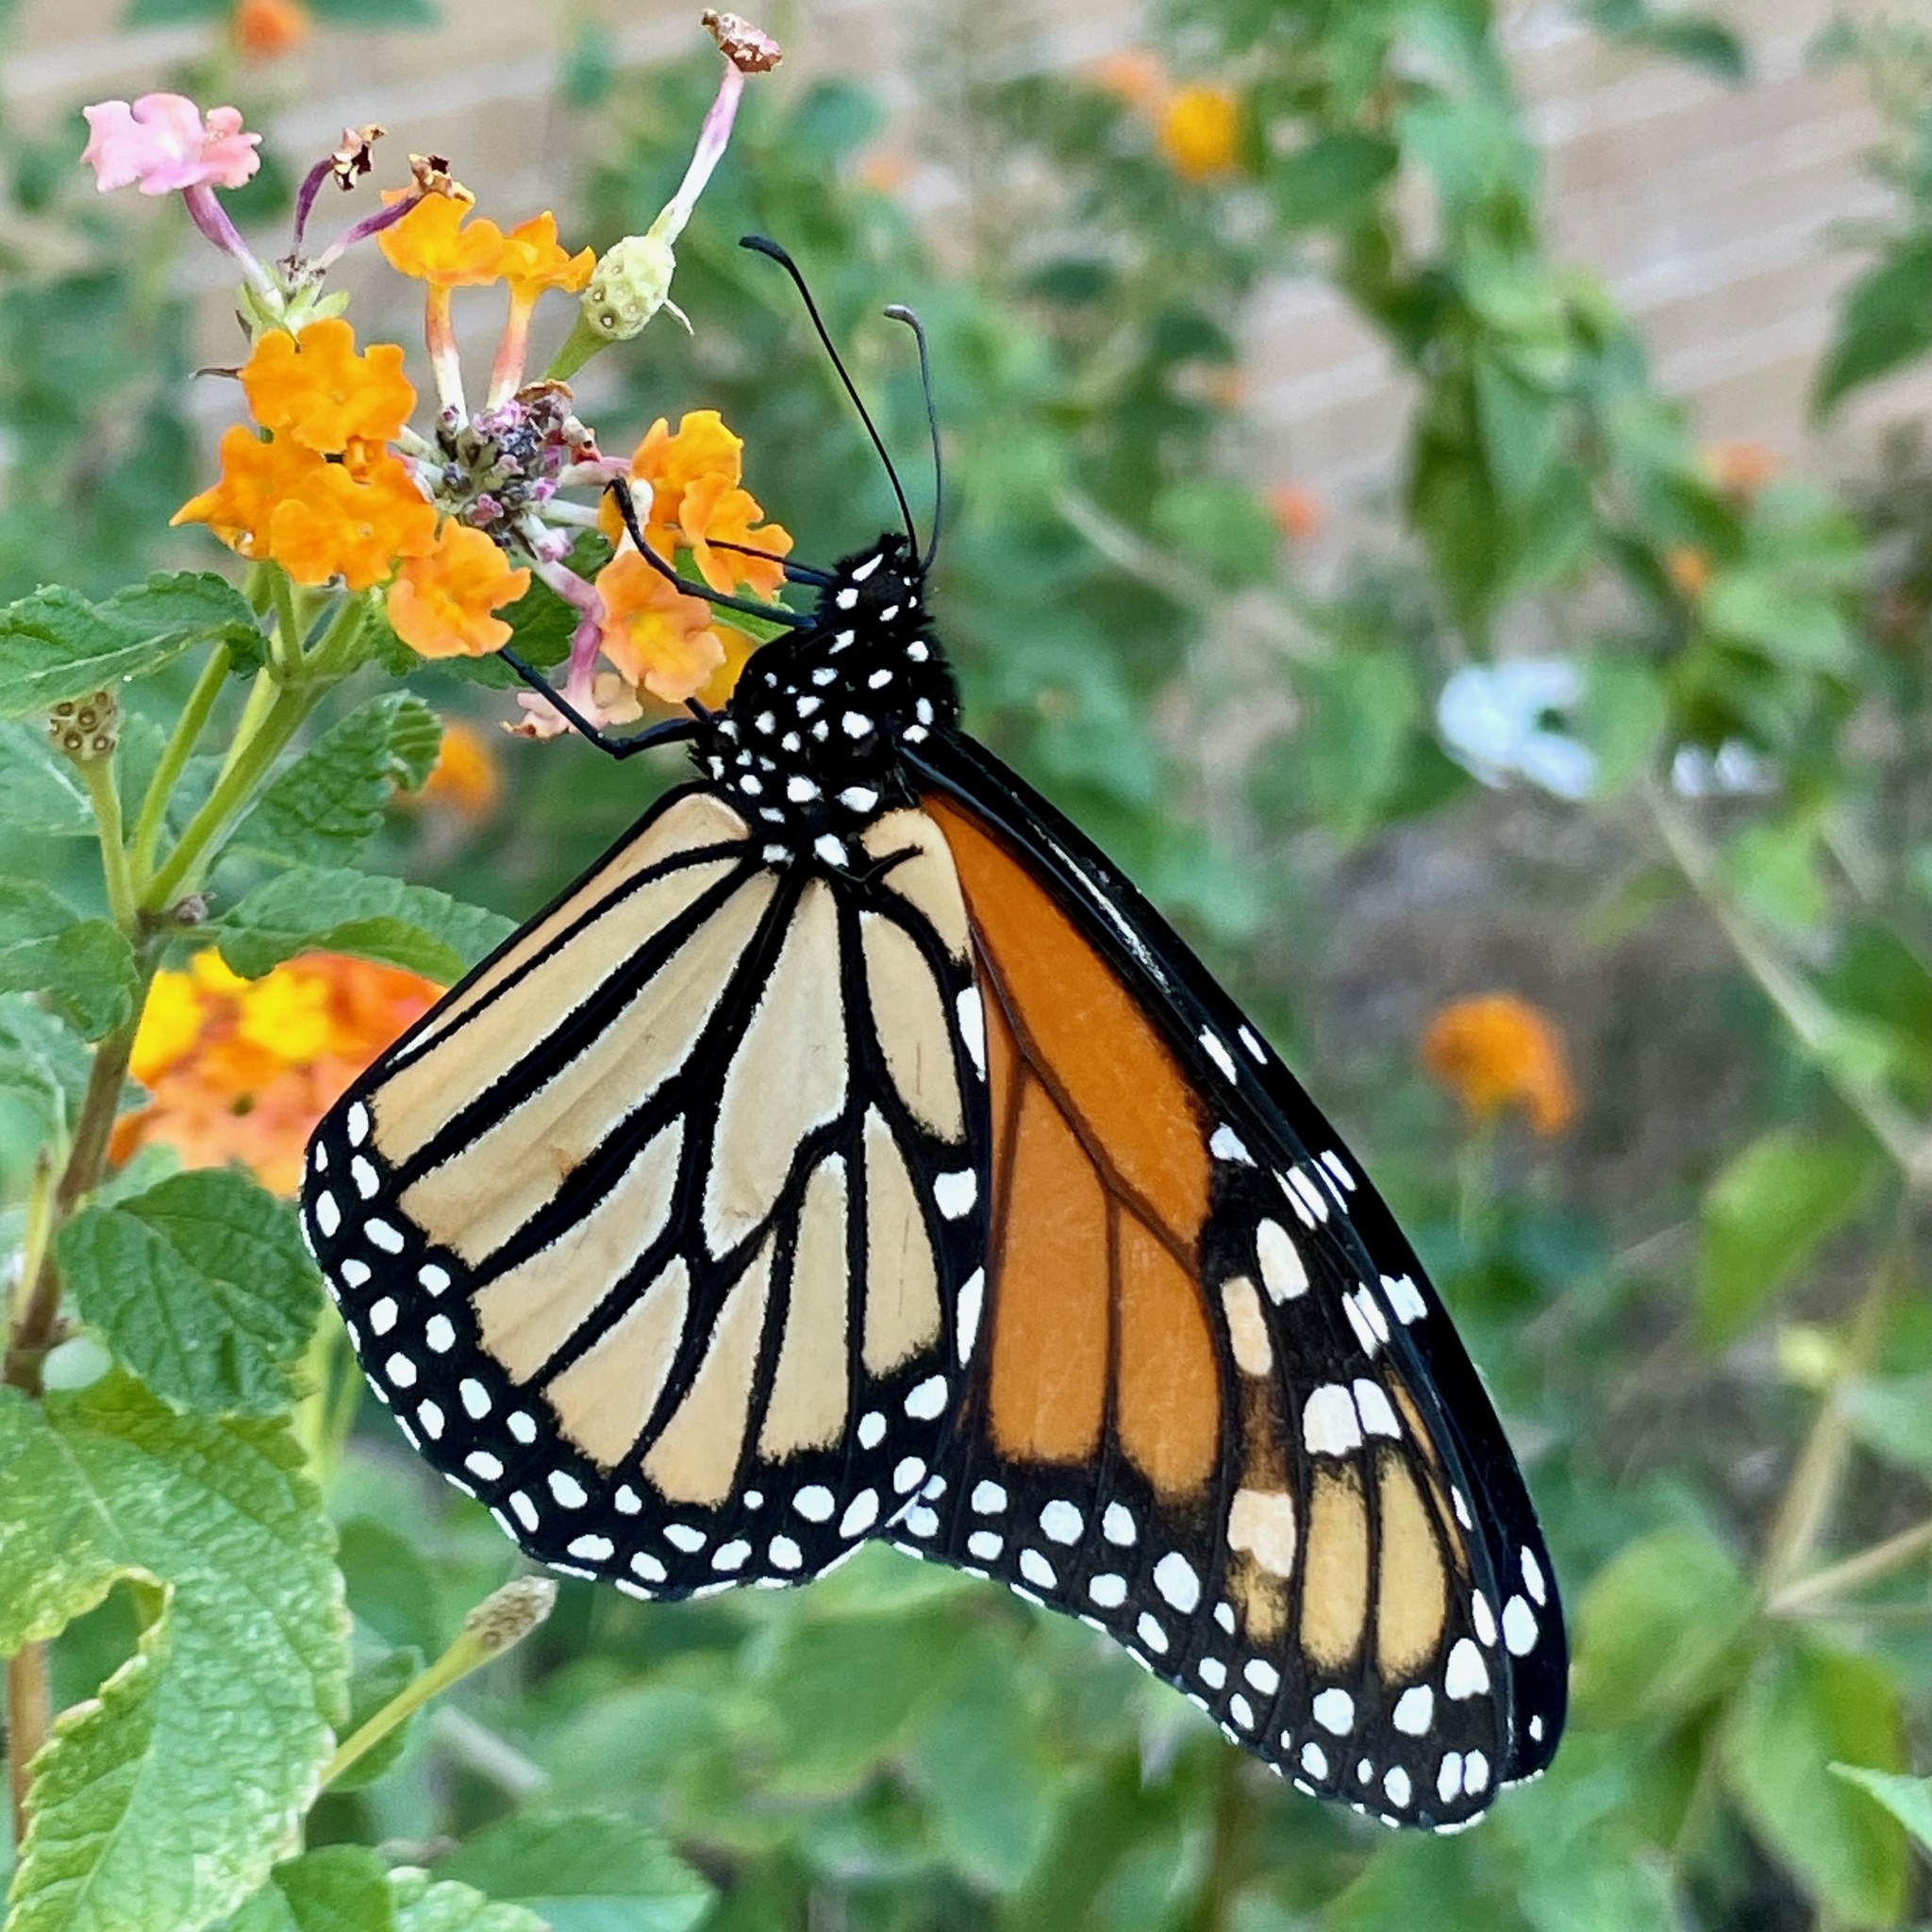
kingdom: Animalia
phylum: Arthropoda
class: Insecta
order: Lepidoptera
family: Nymphalidae
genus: Danaus
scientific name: Danaus plexippus
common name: Monarch
